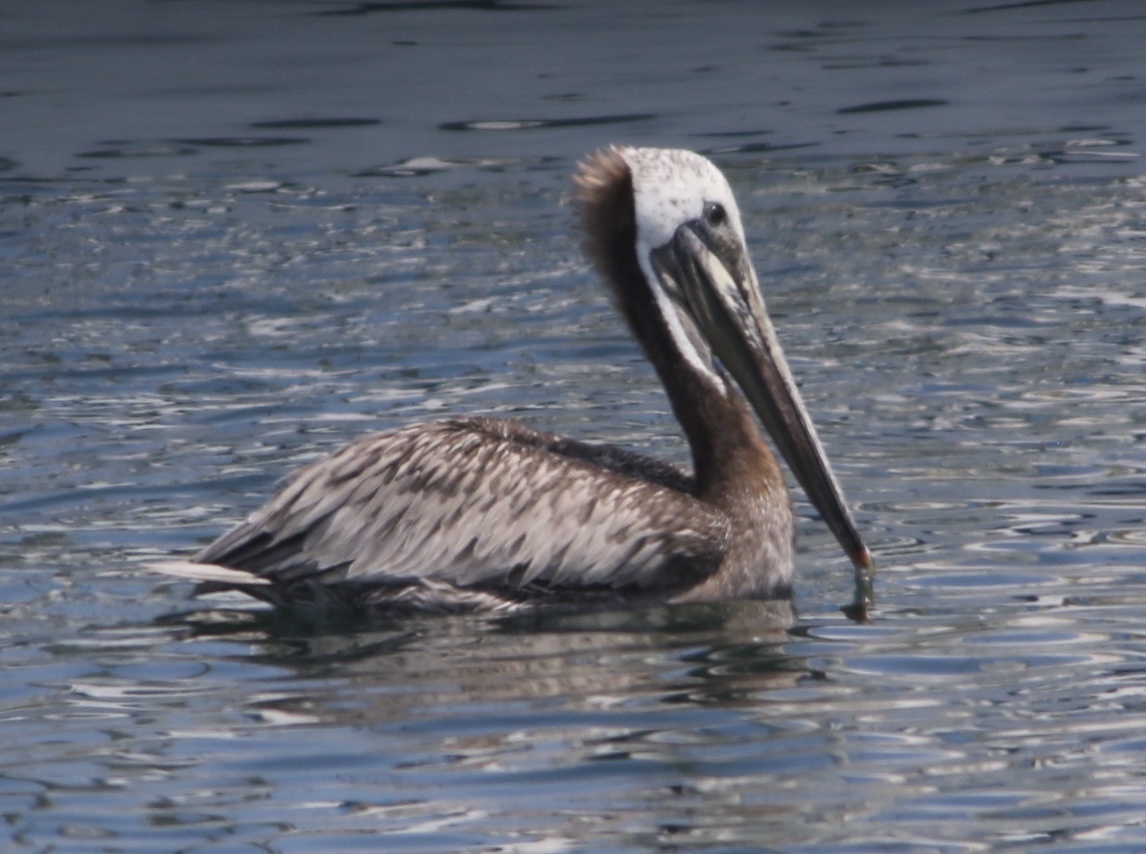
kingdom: Animalia
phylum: Chordata
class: Aves
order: Pelecaniformes
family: Pelecanidae
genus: Pelecanus
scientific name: Pelecanus occidentalis
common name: Brown pelican
